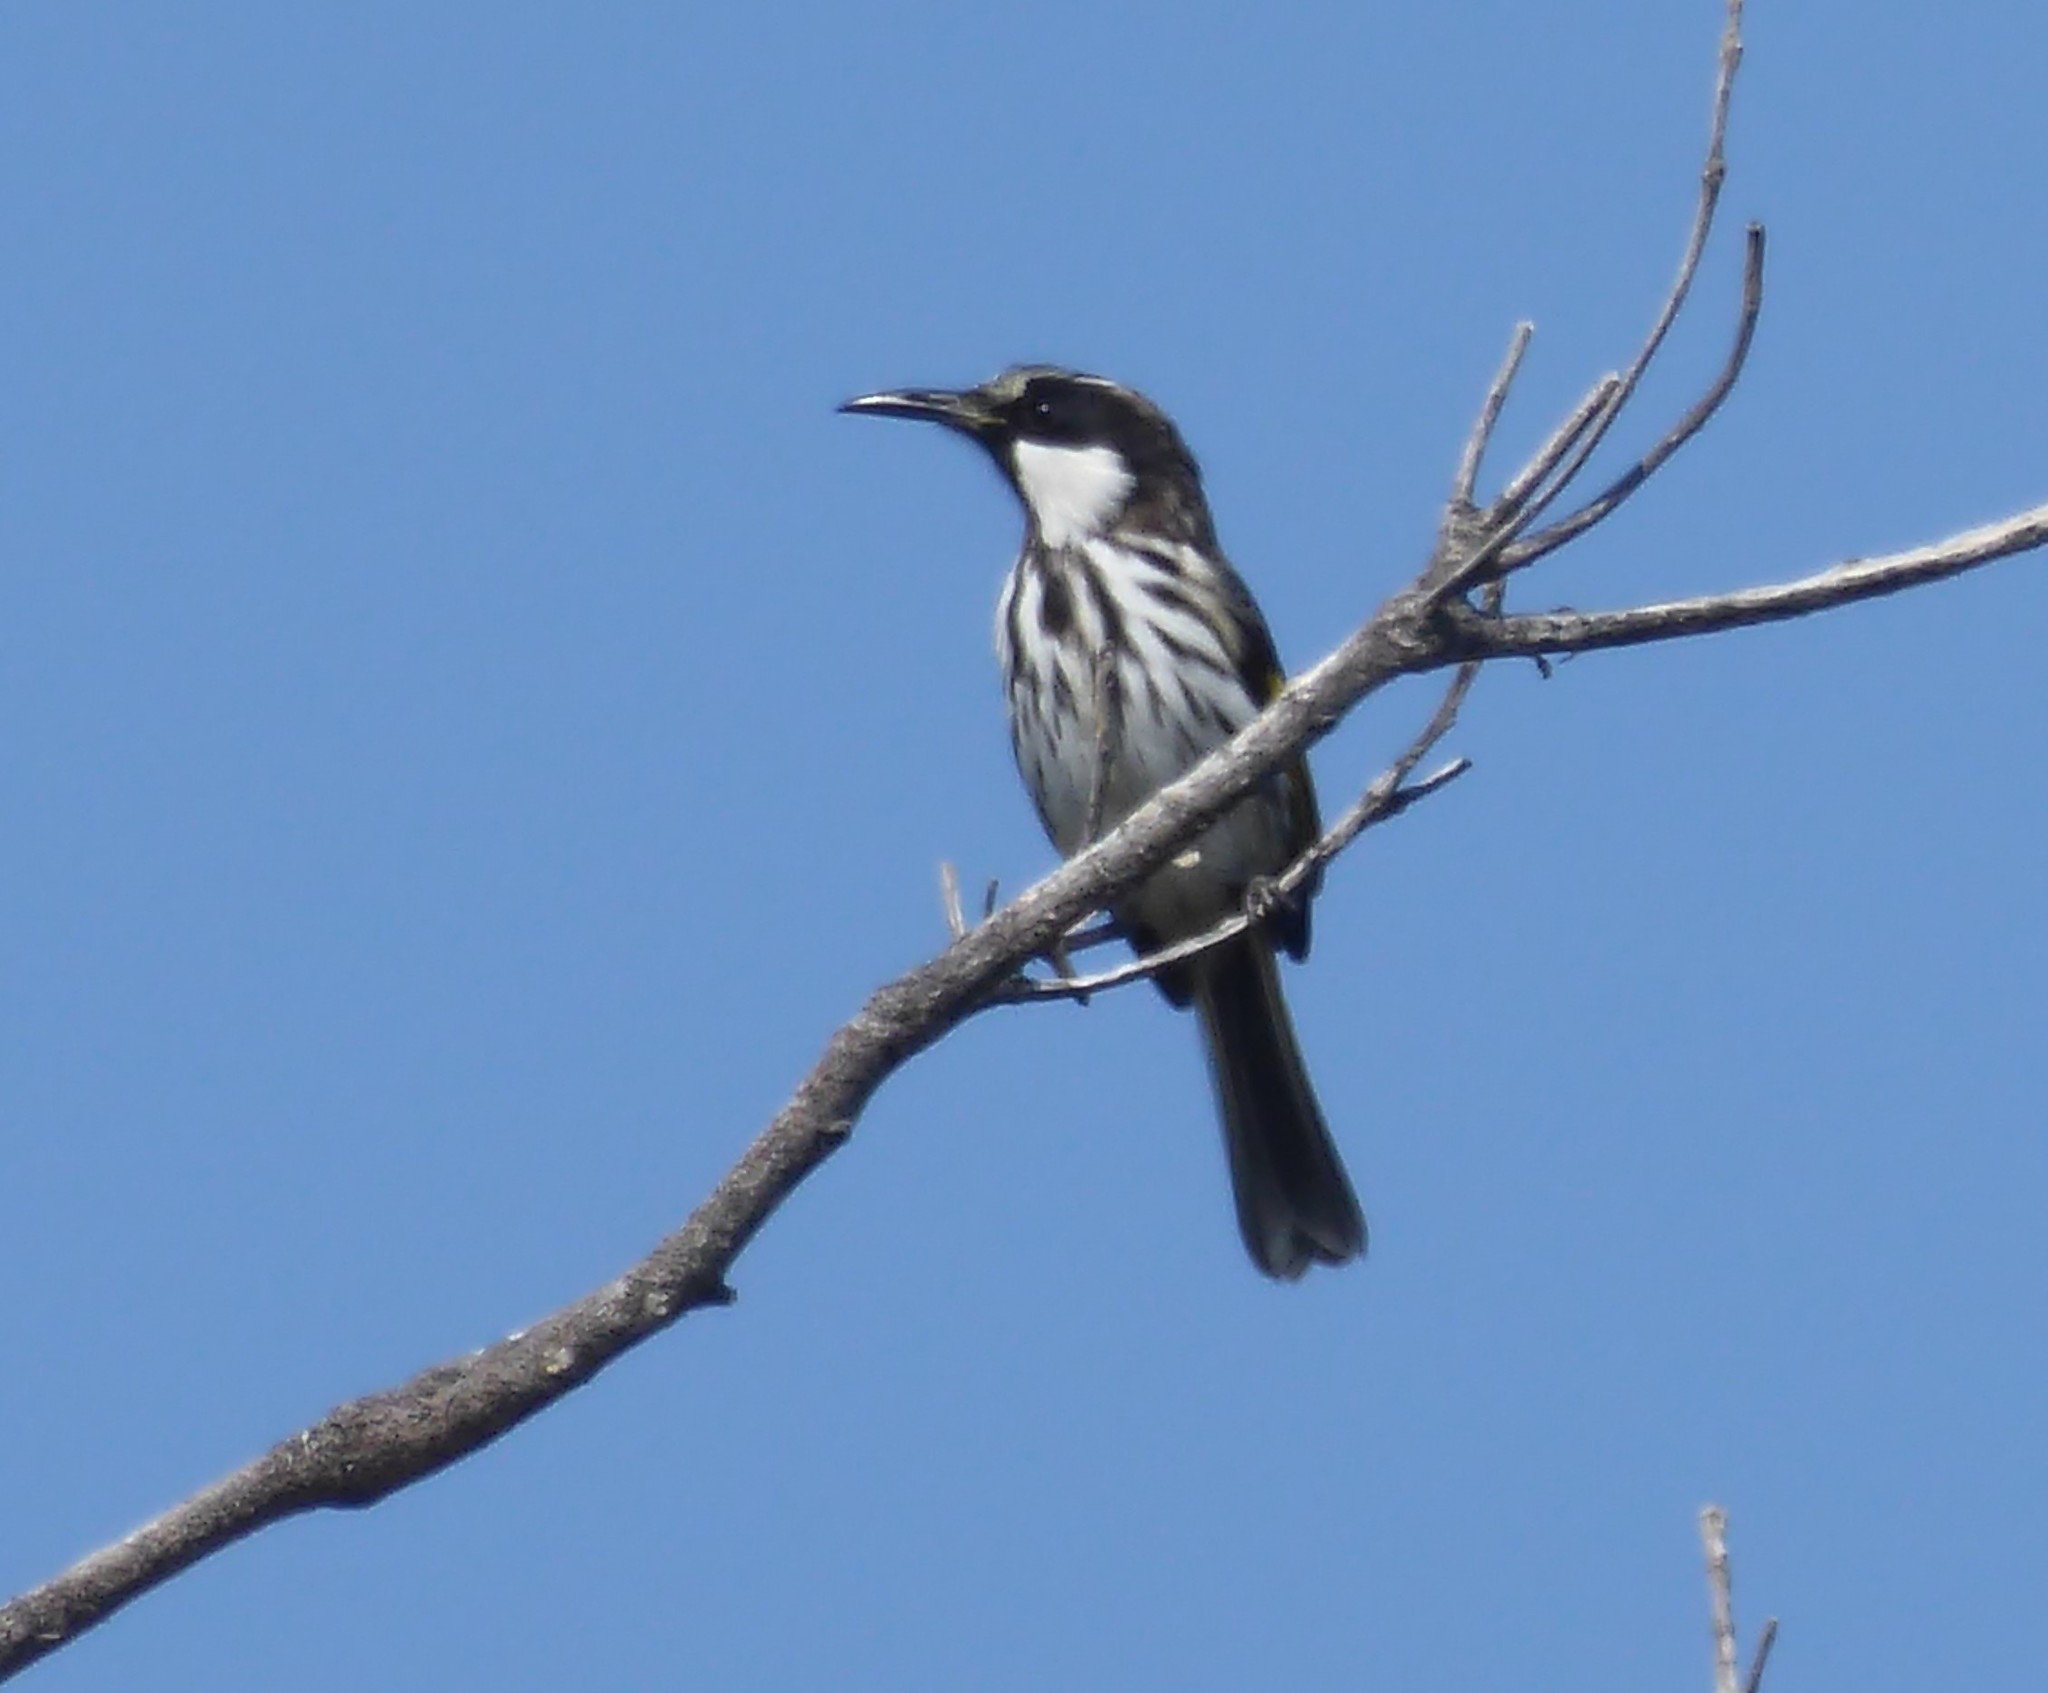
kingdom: Animalia
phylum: Chordata
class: Aves
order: Passeriformes
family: Meliphagidae
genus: Phylidonyris
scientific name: Phylidonyris niger
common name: White-cheeked honeyeater
